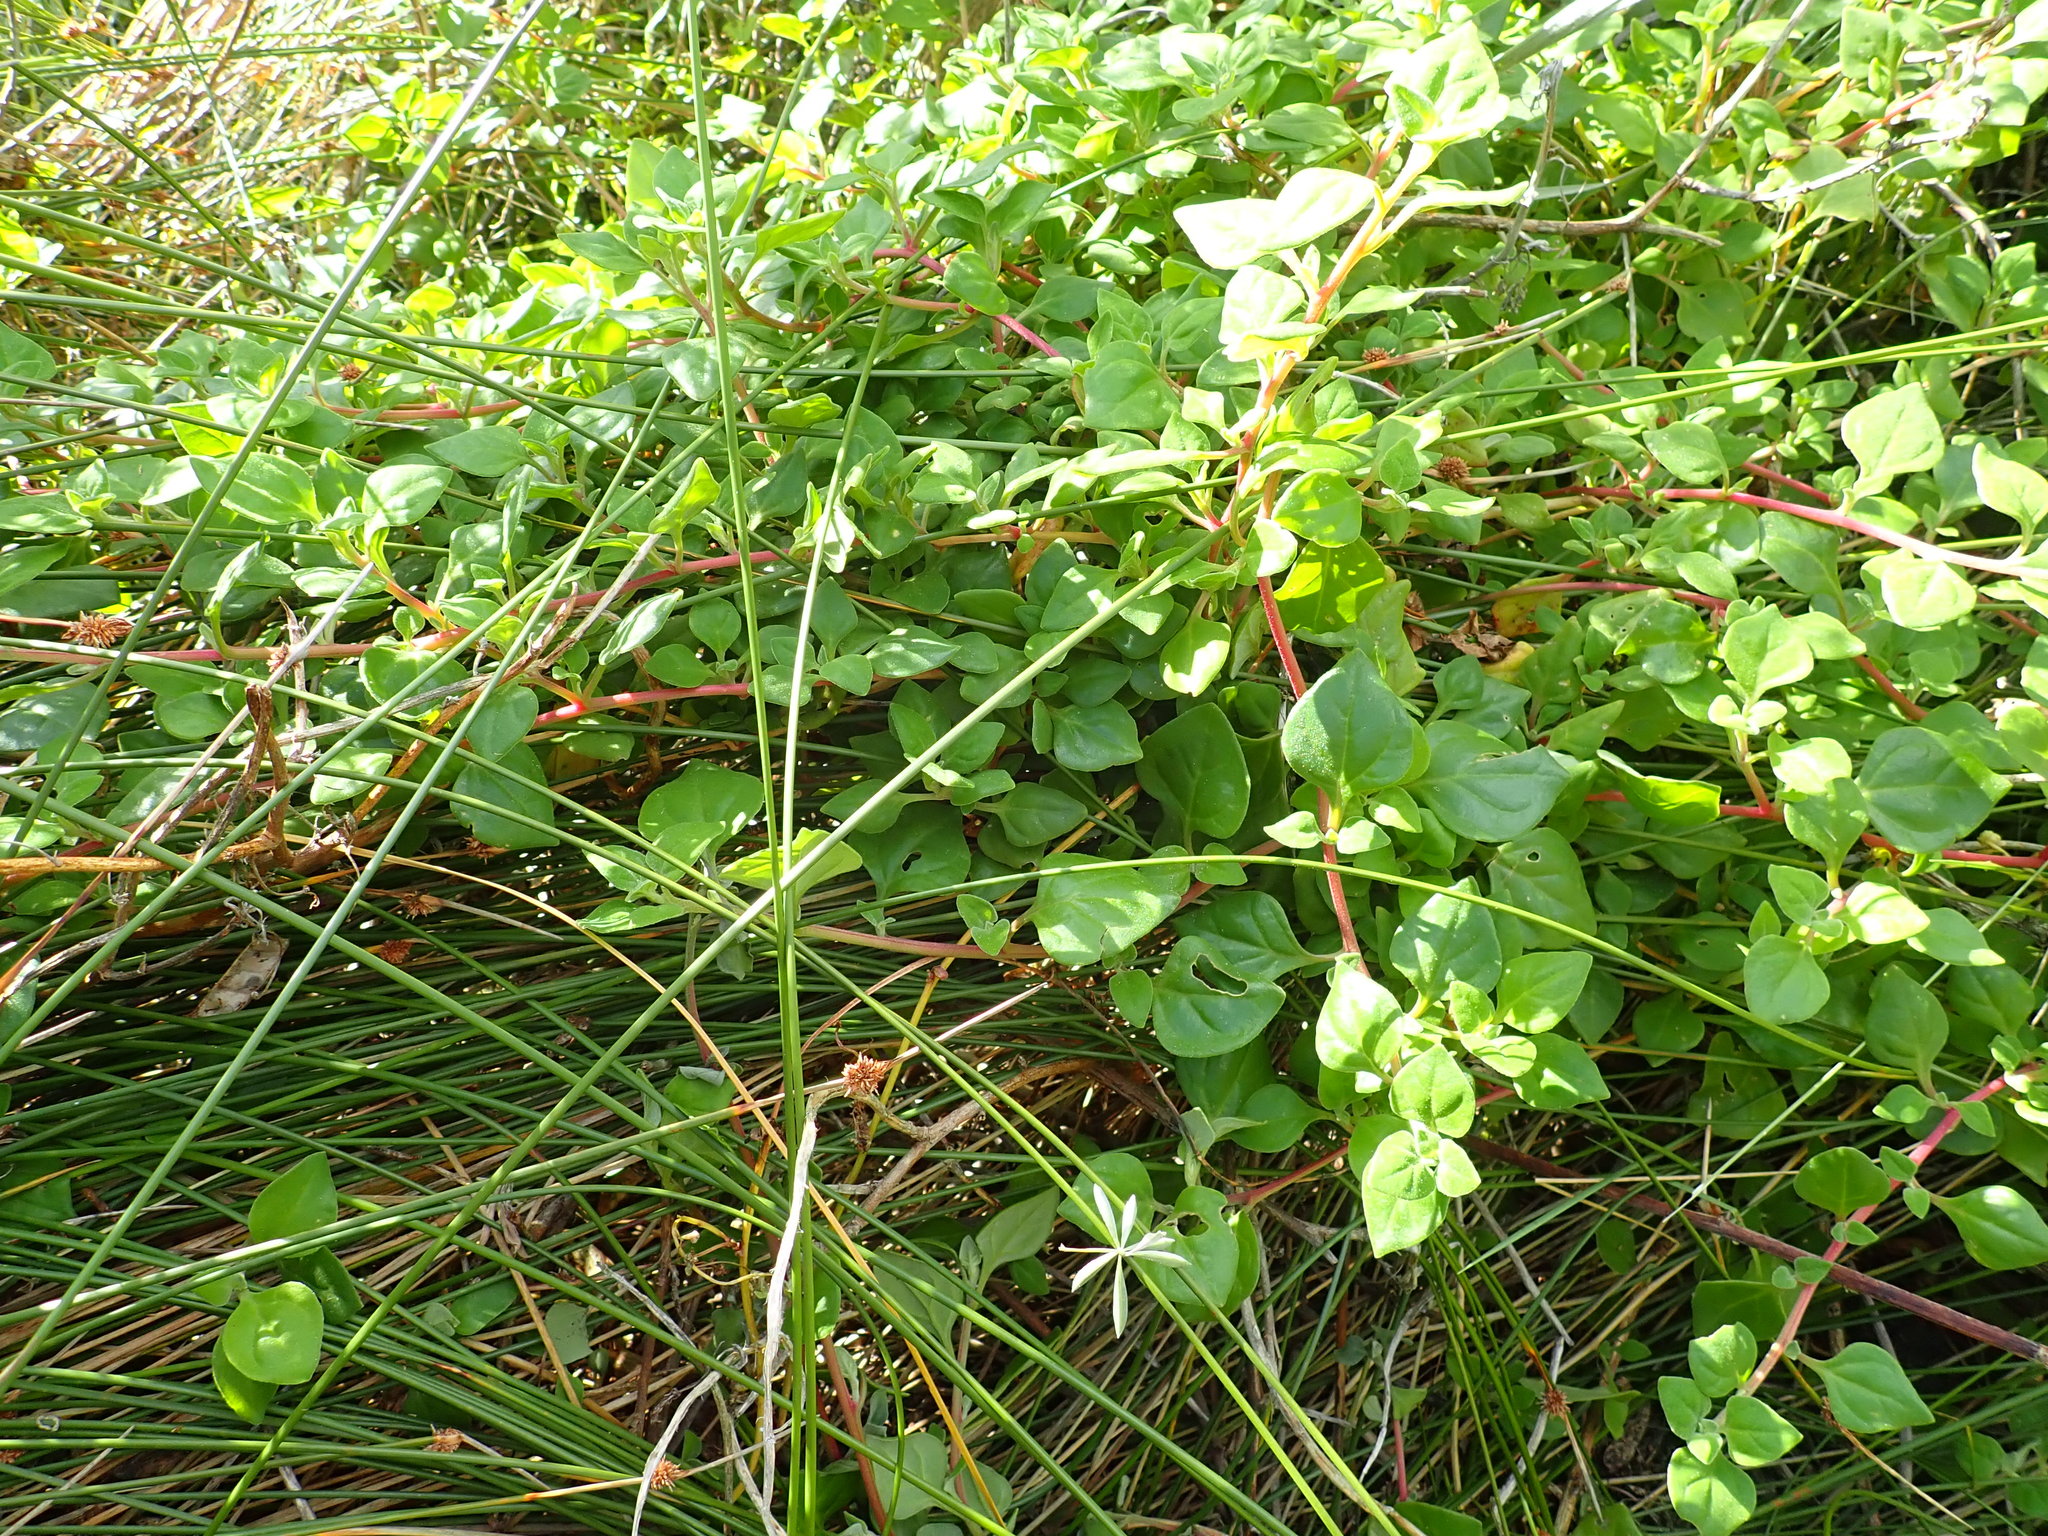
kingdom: Plantae
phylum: Tracheophyta
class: Magnoliopsida
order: Caryophyllales
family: Aizoaceae
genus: Tetragonia
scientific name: Tetragonia implexicoma
